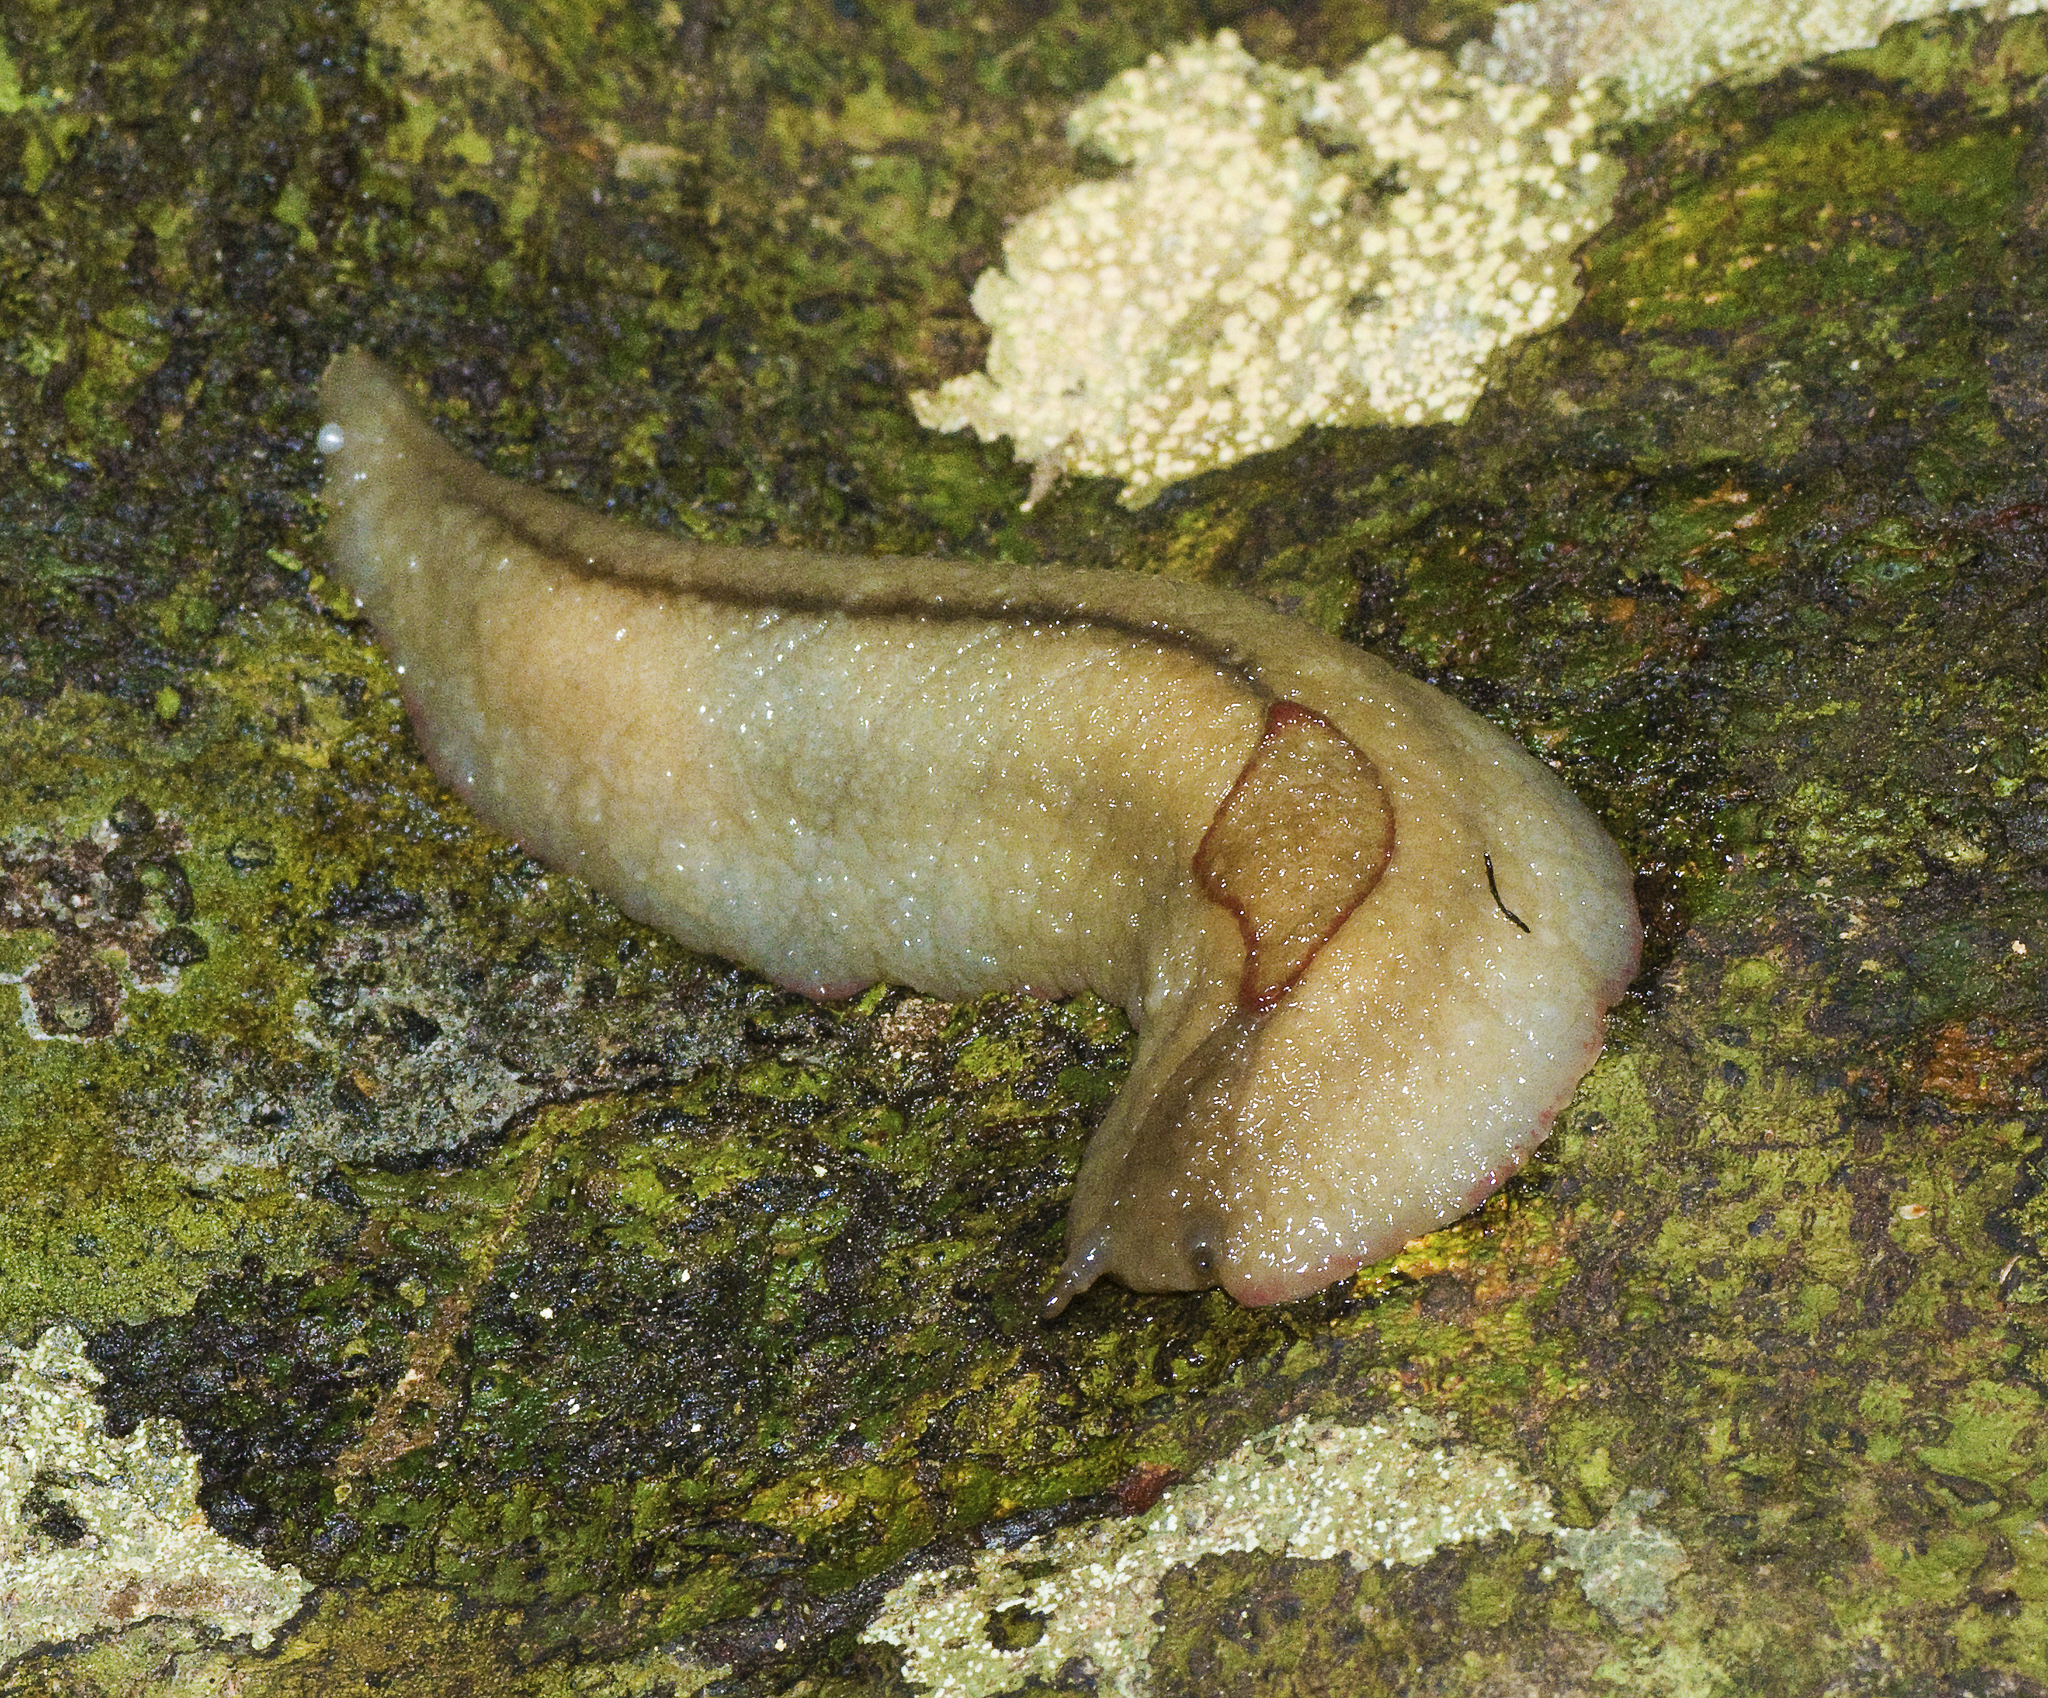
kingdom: Animalia
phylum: Mollusca
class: Gastropoda
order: Stylommatophora
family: Athoracophoridae
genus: Triboniophorus
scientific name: Triboniophorus graeffei
